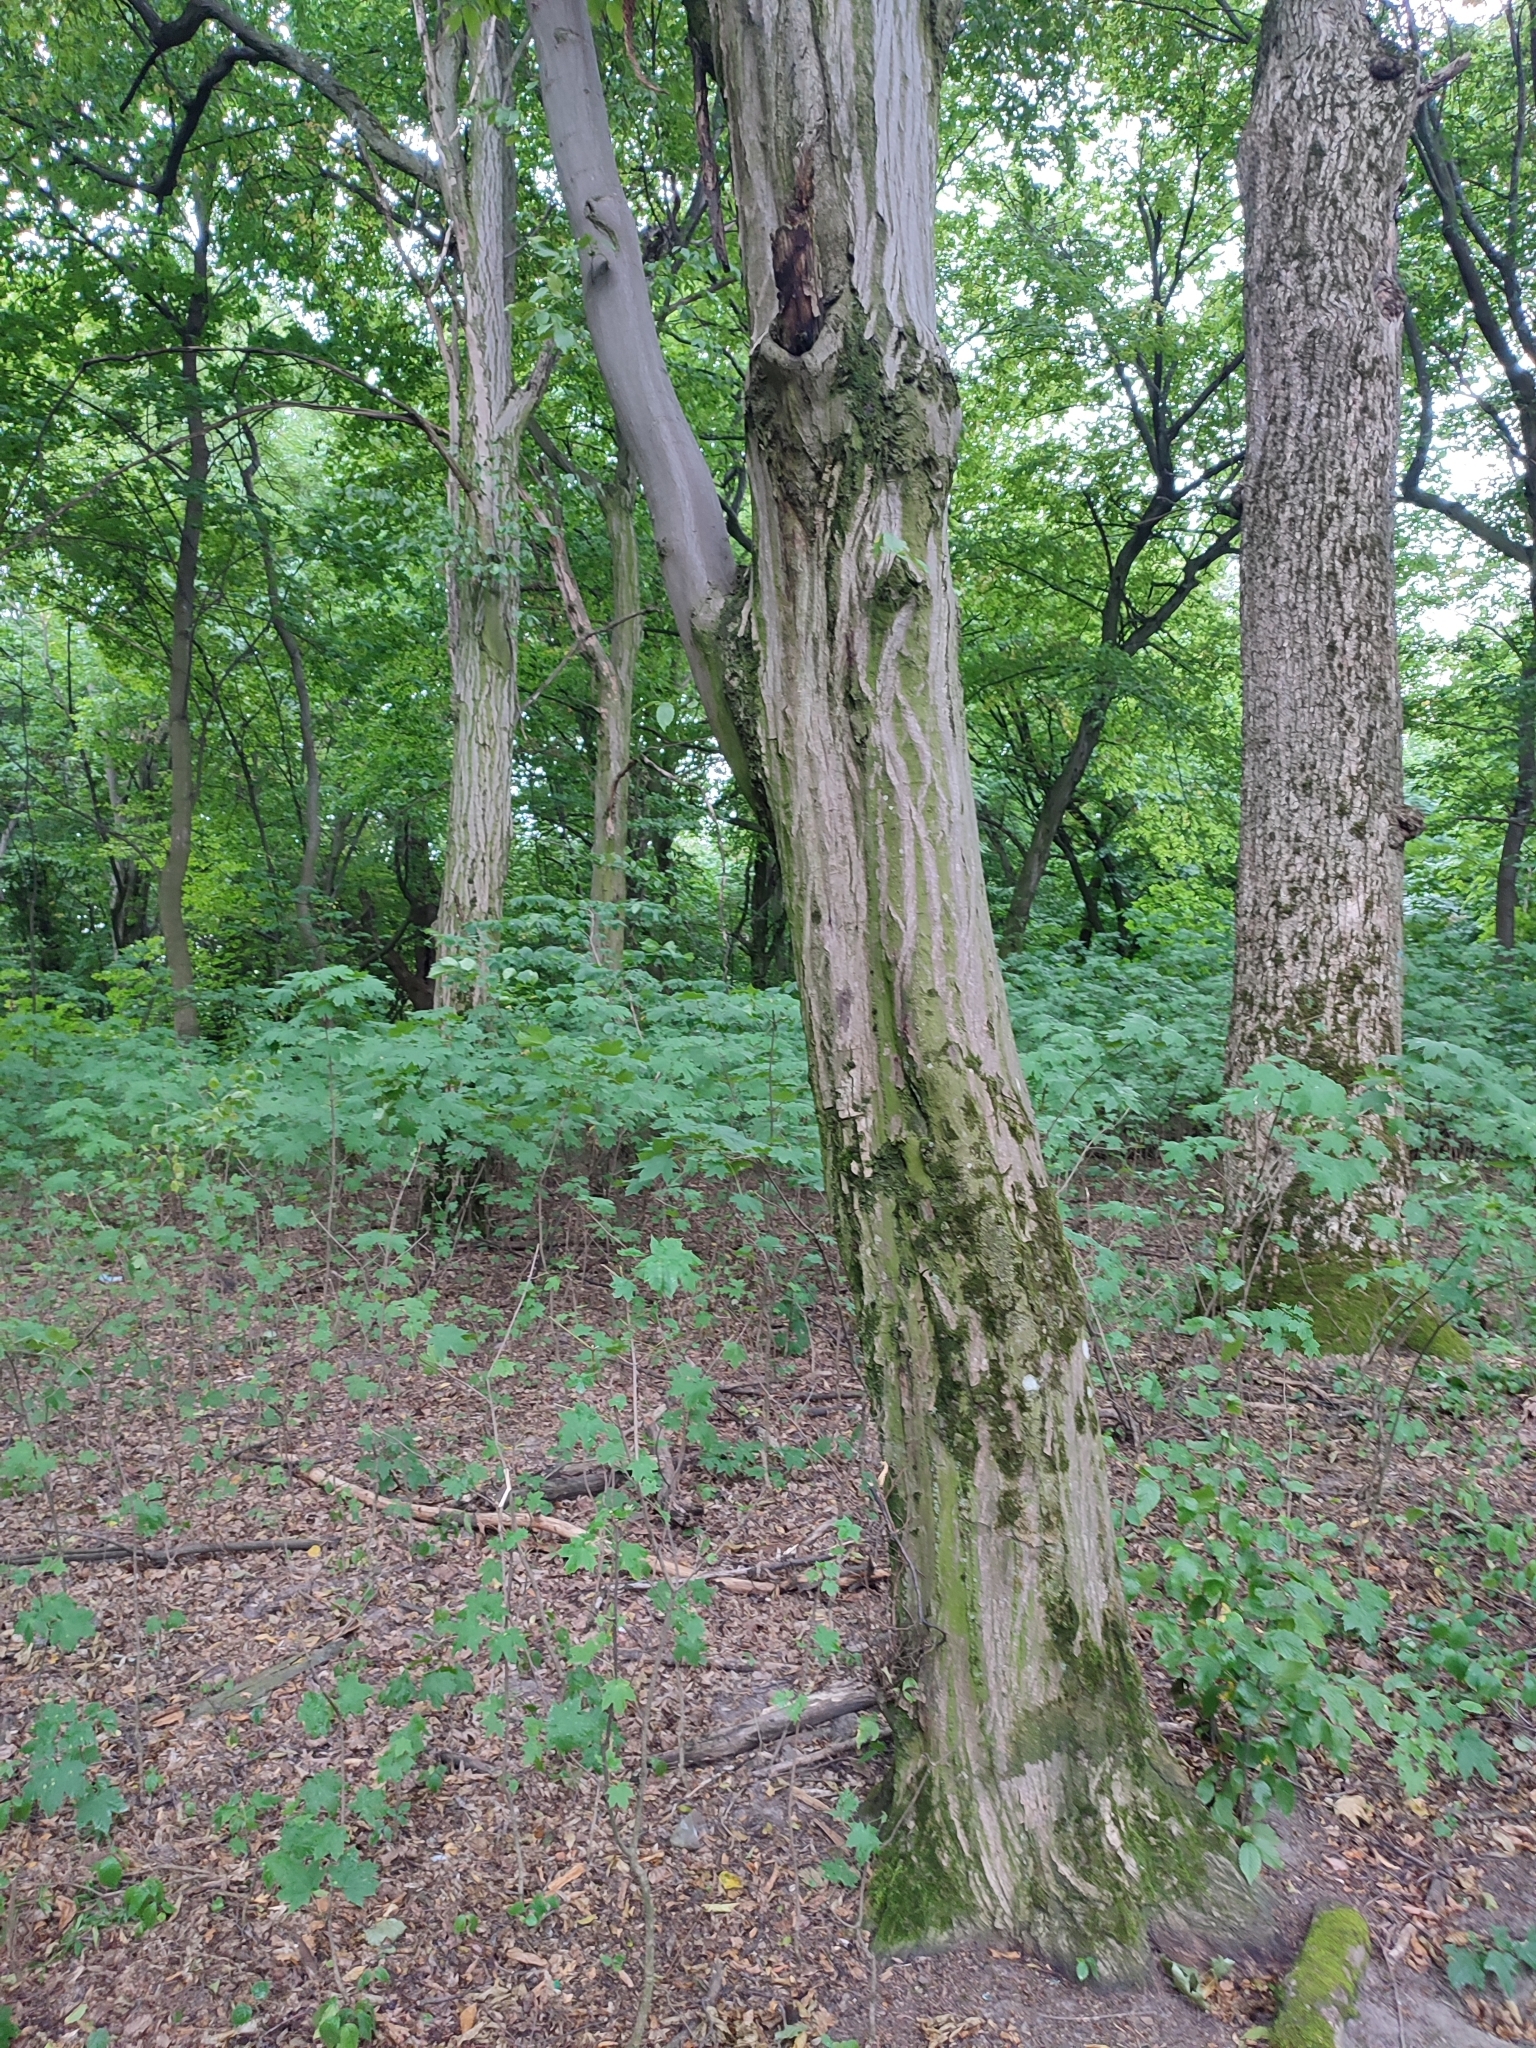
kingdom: Plantae
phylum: Tracheophyta
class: Magnoliopsida
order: Fagales
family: Betulaceae
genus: Carpinus
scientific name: Carpinus betulus
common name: Hornbeam
